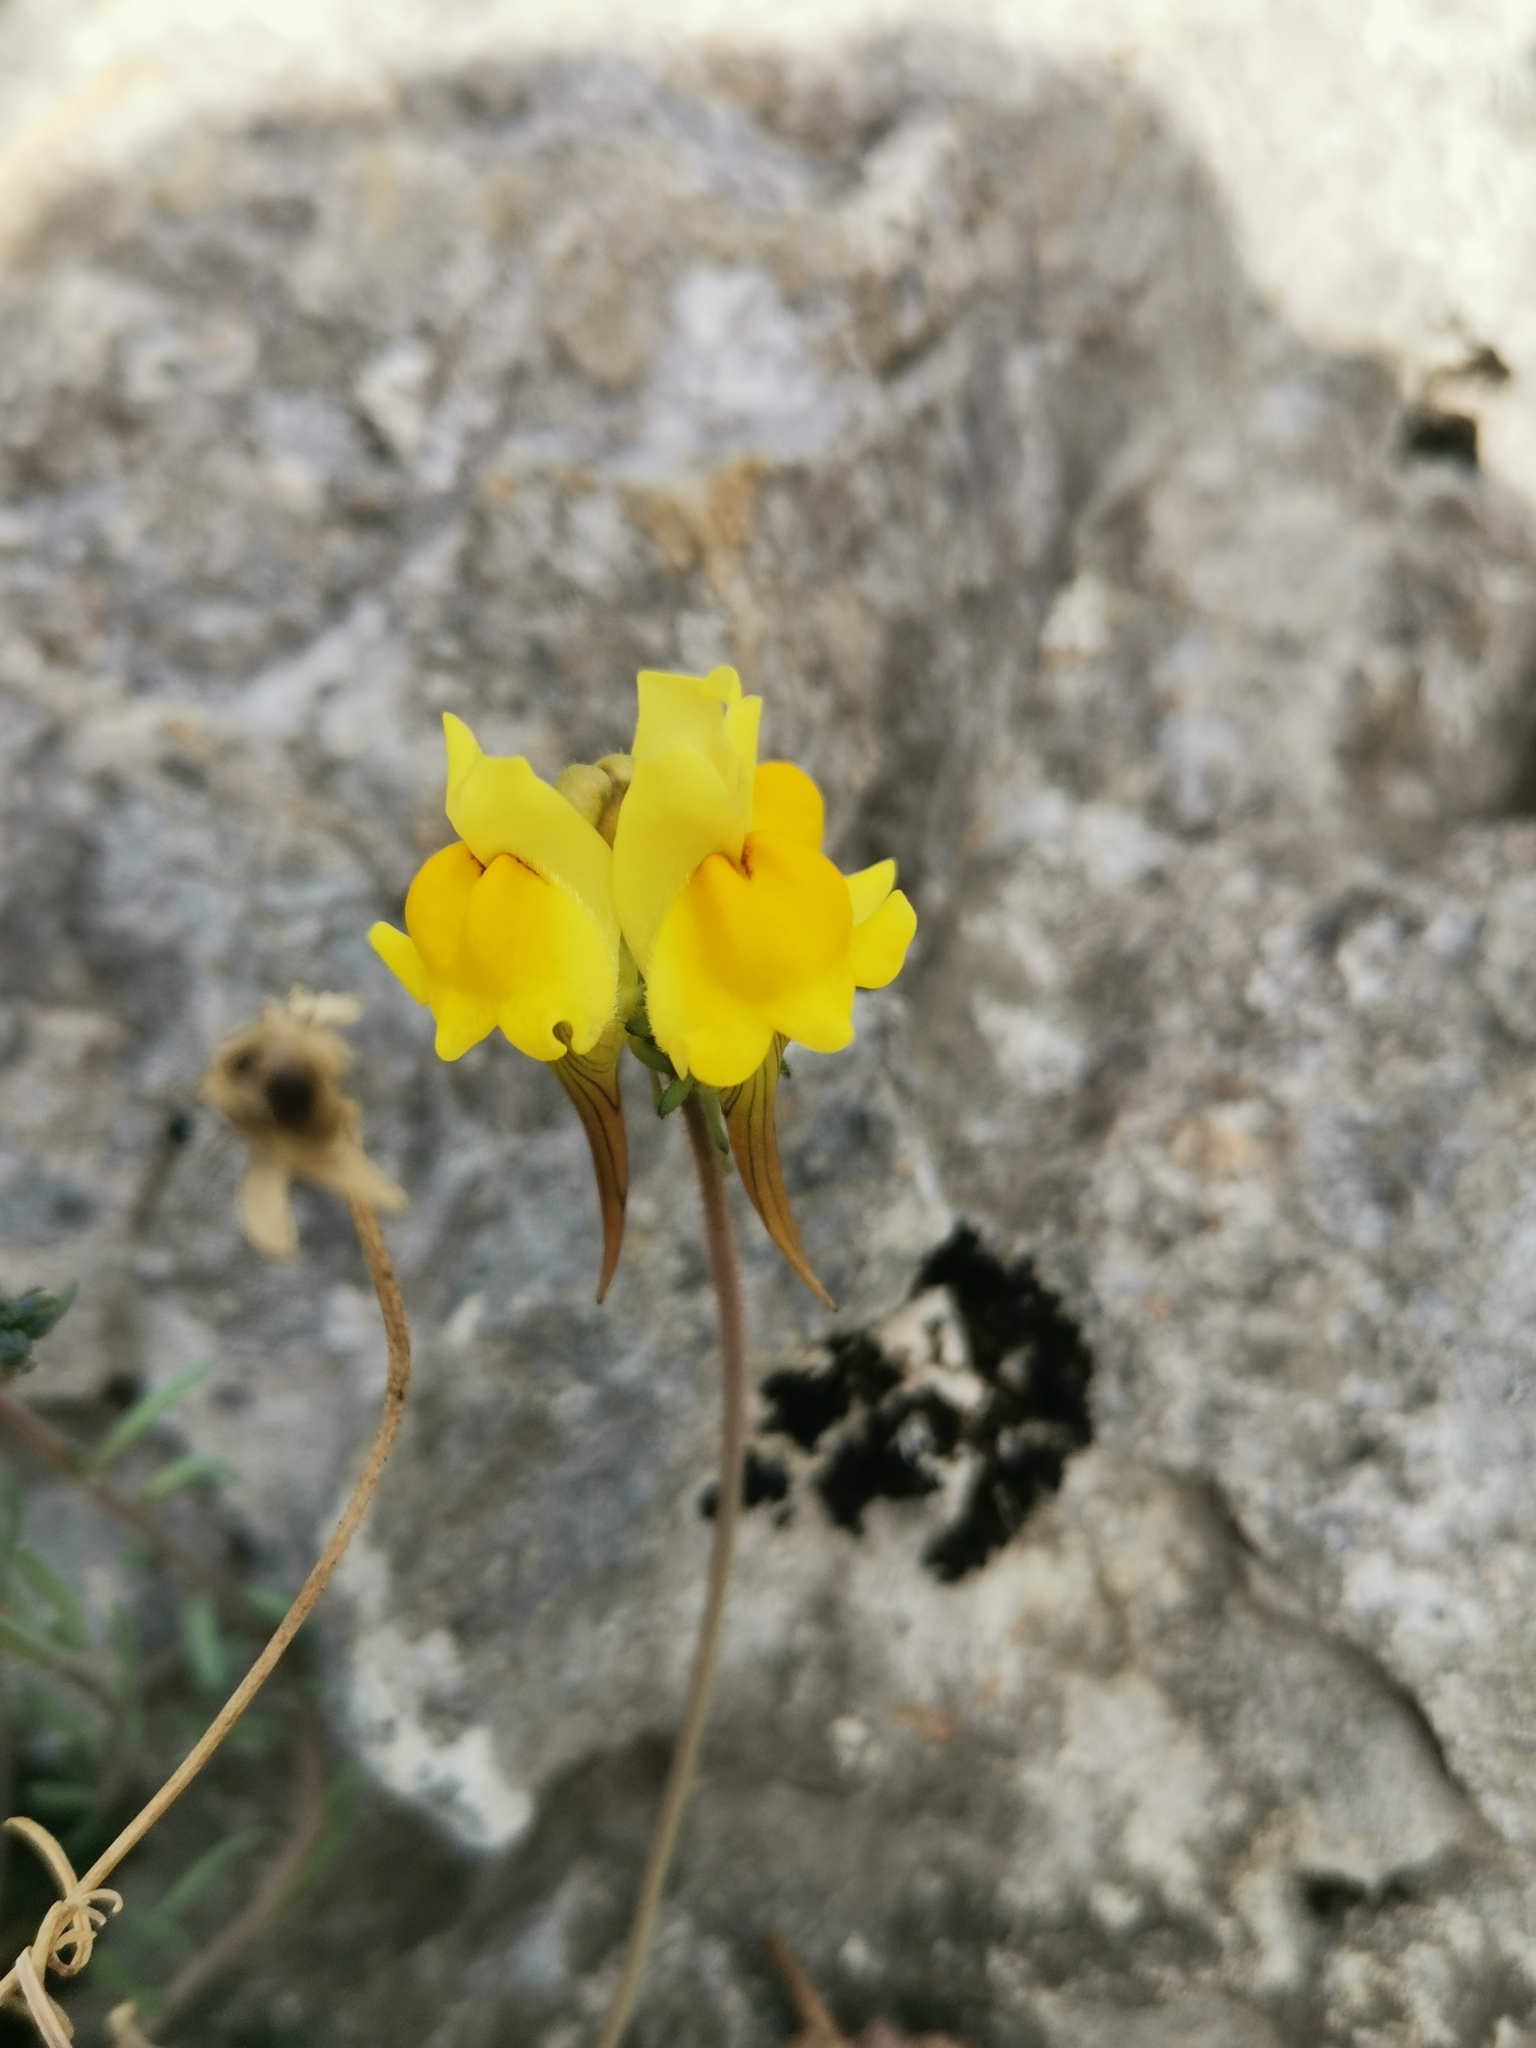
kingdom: Plantae
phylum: Tracheophyta
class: Magnoliopsida
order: Lamiales
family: Plantaginaceae
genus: Linaria
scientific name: Linaria supina
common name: Prostrate toadflax
